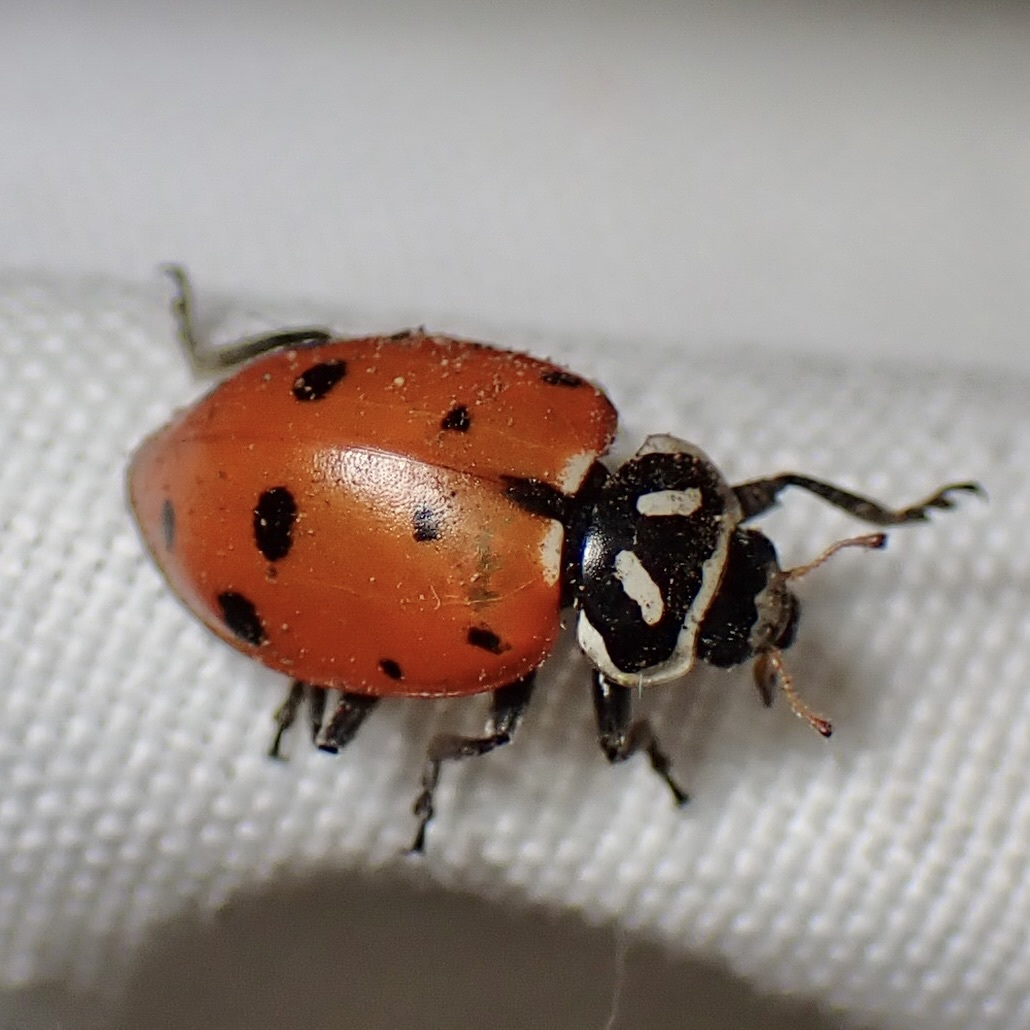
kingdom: Animalia
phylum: Arthropoda
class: Insecta
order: Coleoptera
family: Coccinellidae
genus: Hippodamia
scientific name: Hippodamia convergens
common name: Convergent lady beetle
